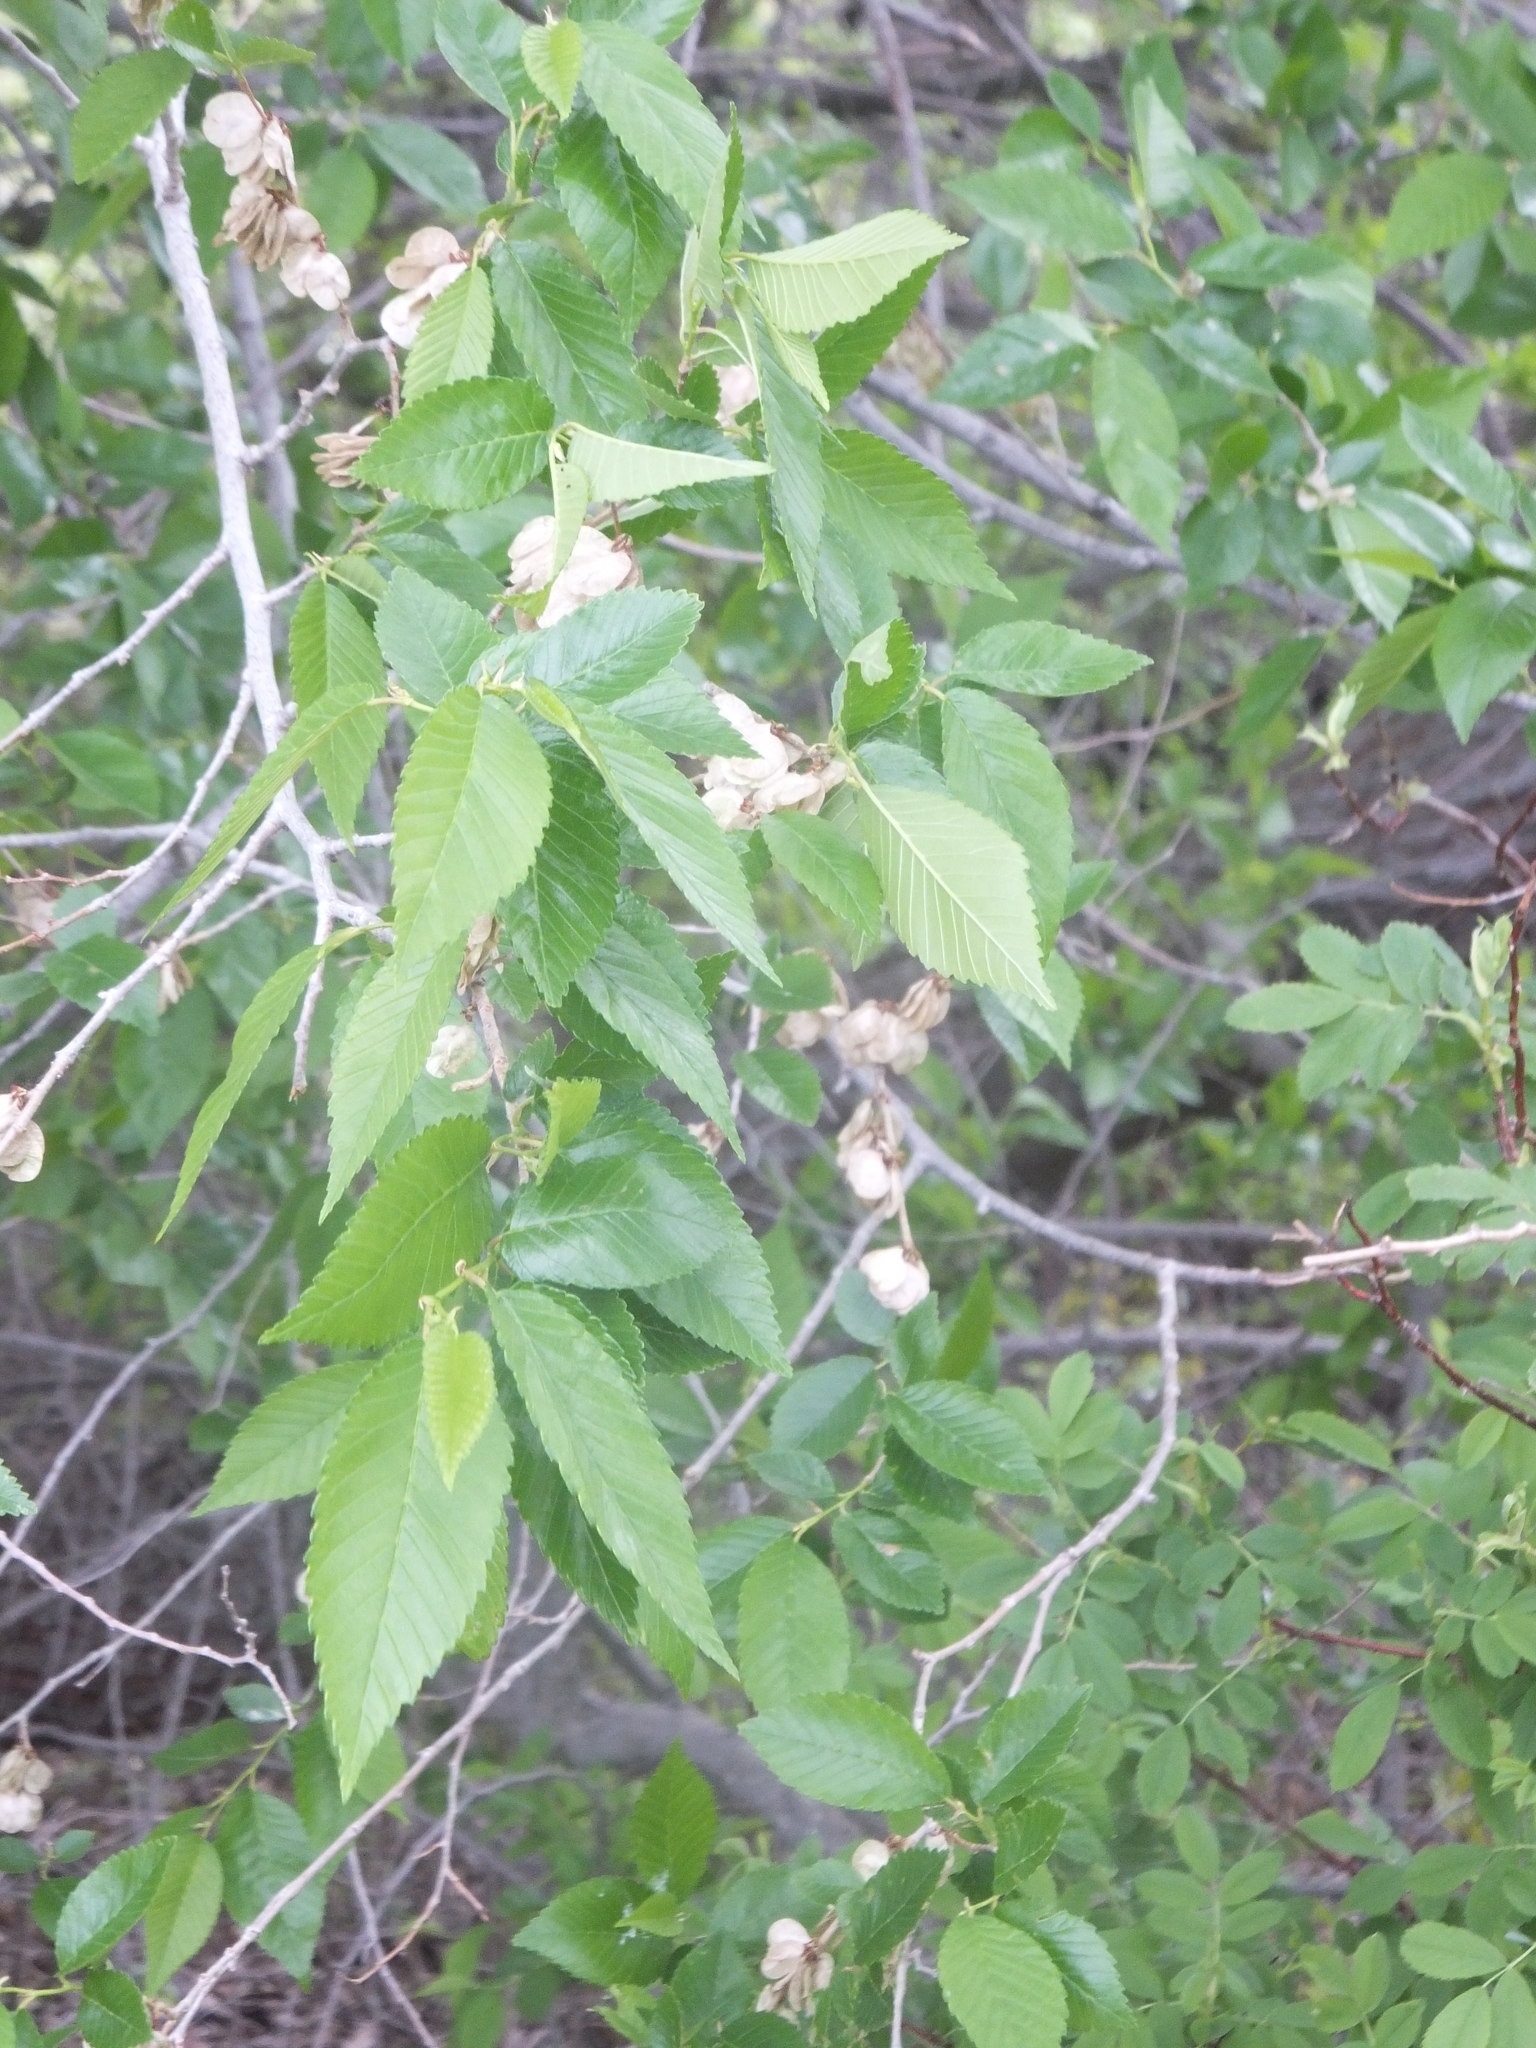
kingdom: Plantae
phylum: Tracheophyta
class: Magnoliopsida
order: Rosales
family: Ulmaceae
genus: Ulmus
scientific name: Ulmus pumila
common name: Siberian elm
